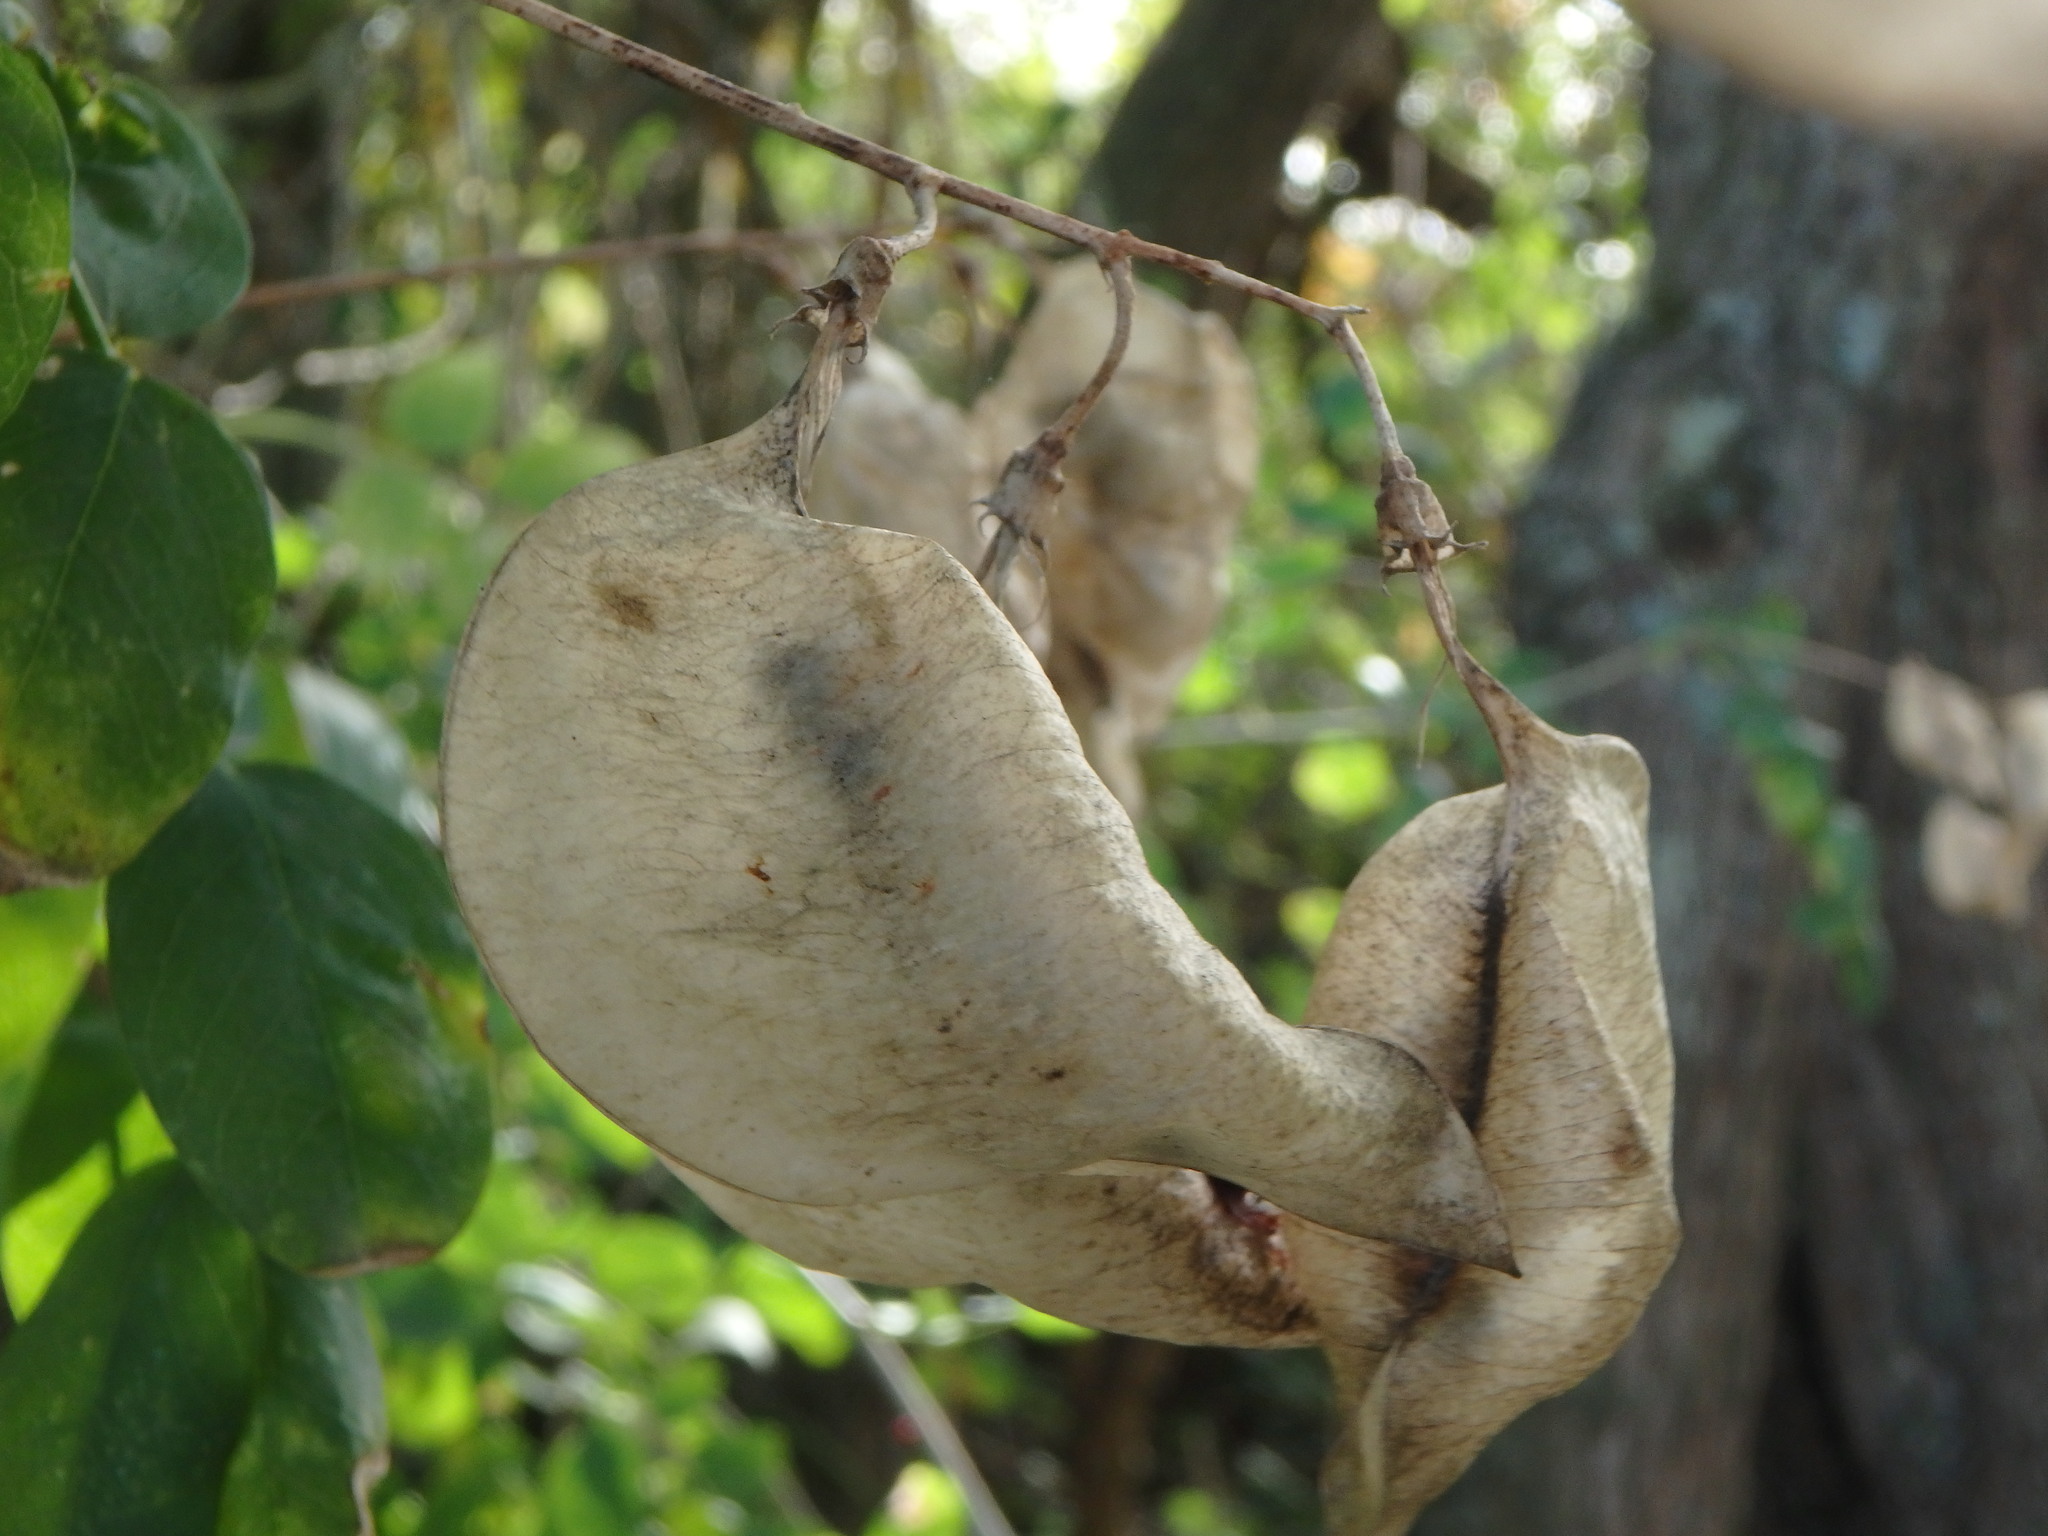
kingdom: Plantae
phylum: Tracheophyta
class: Magnoliopsida
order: Fabales
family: Fabaceae
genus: Colutea
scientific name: Colutea arborescens
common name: Bladder-senna
